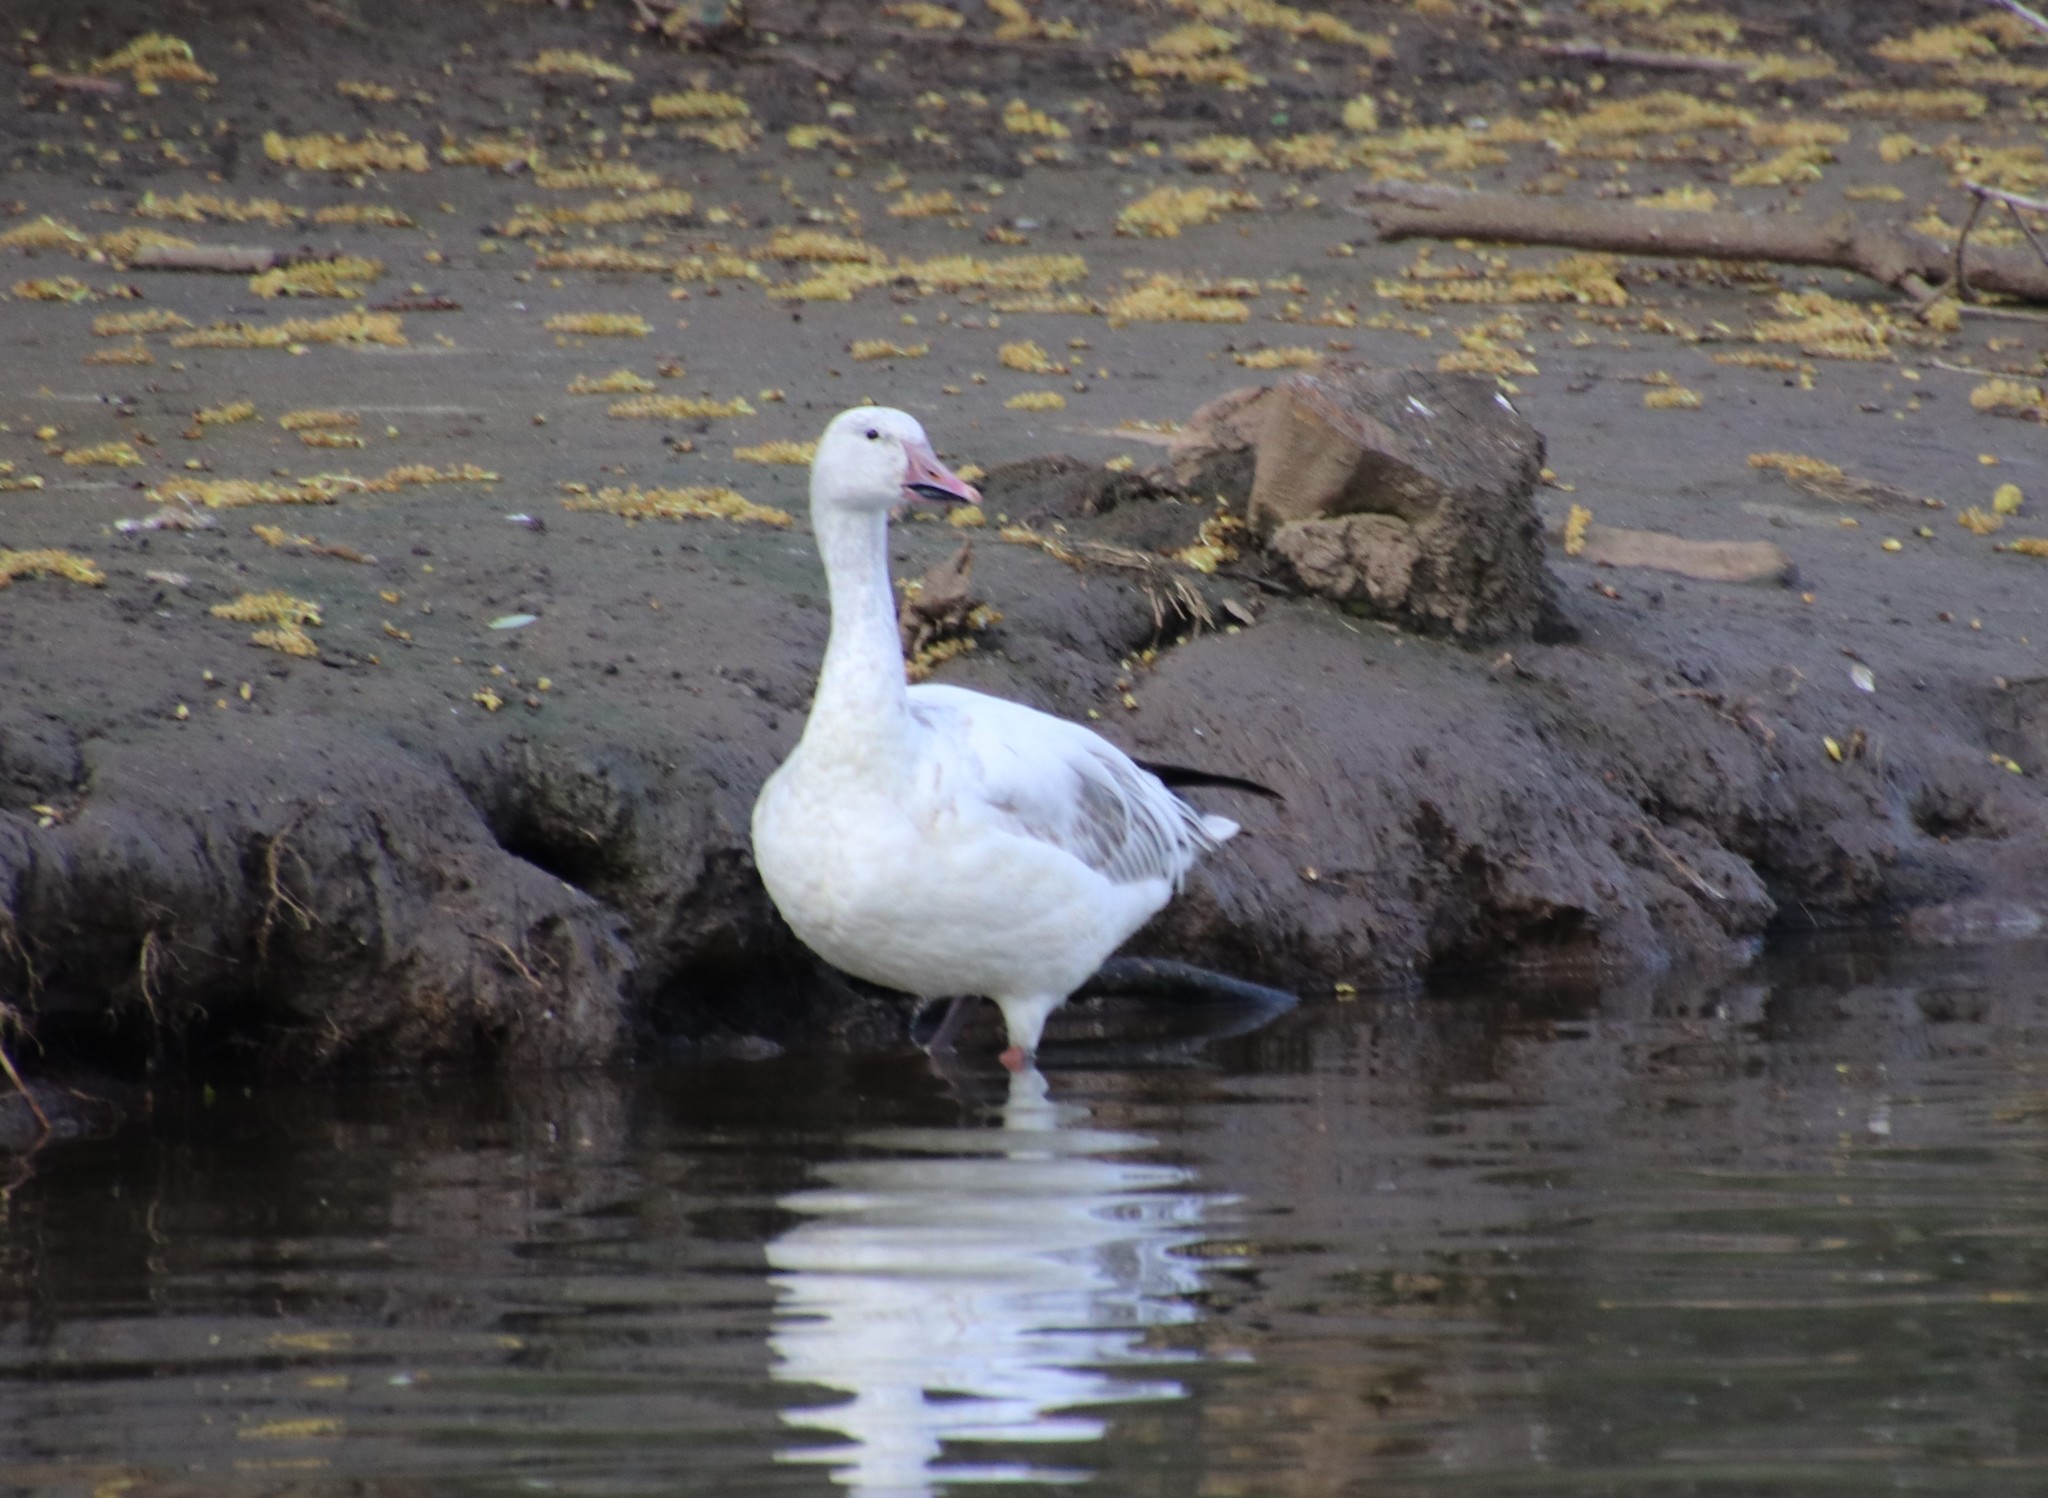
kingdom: Animalia
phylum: Chordata
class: Aves
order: Anseriformes
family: Anatidae
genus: Anser
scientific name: Anser caerulescens
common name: Snow goose
